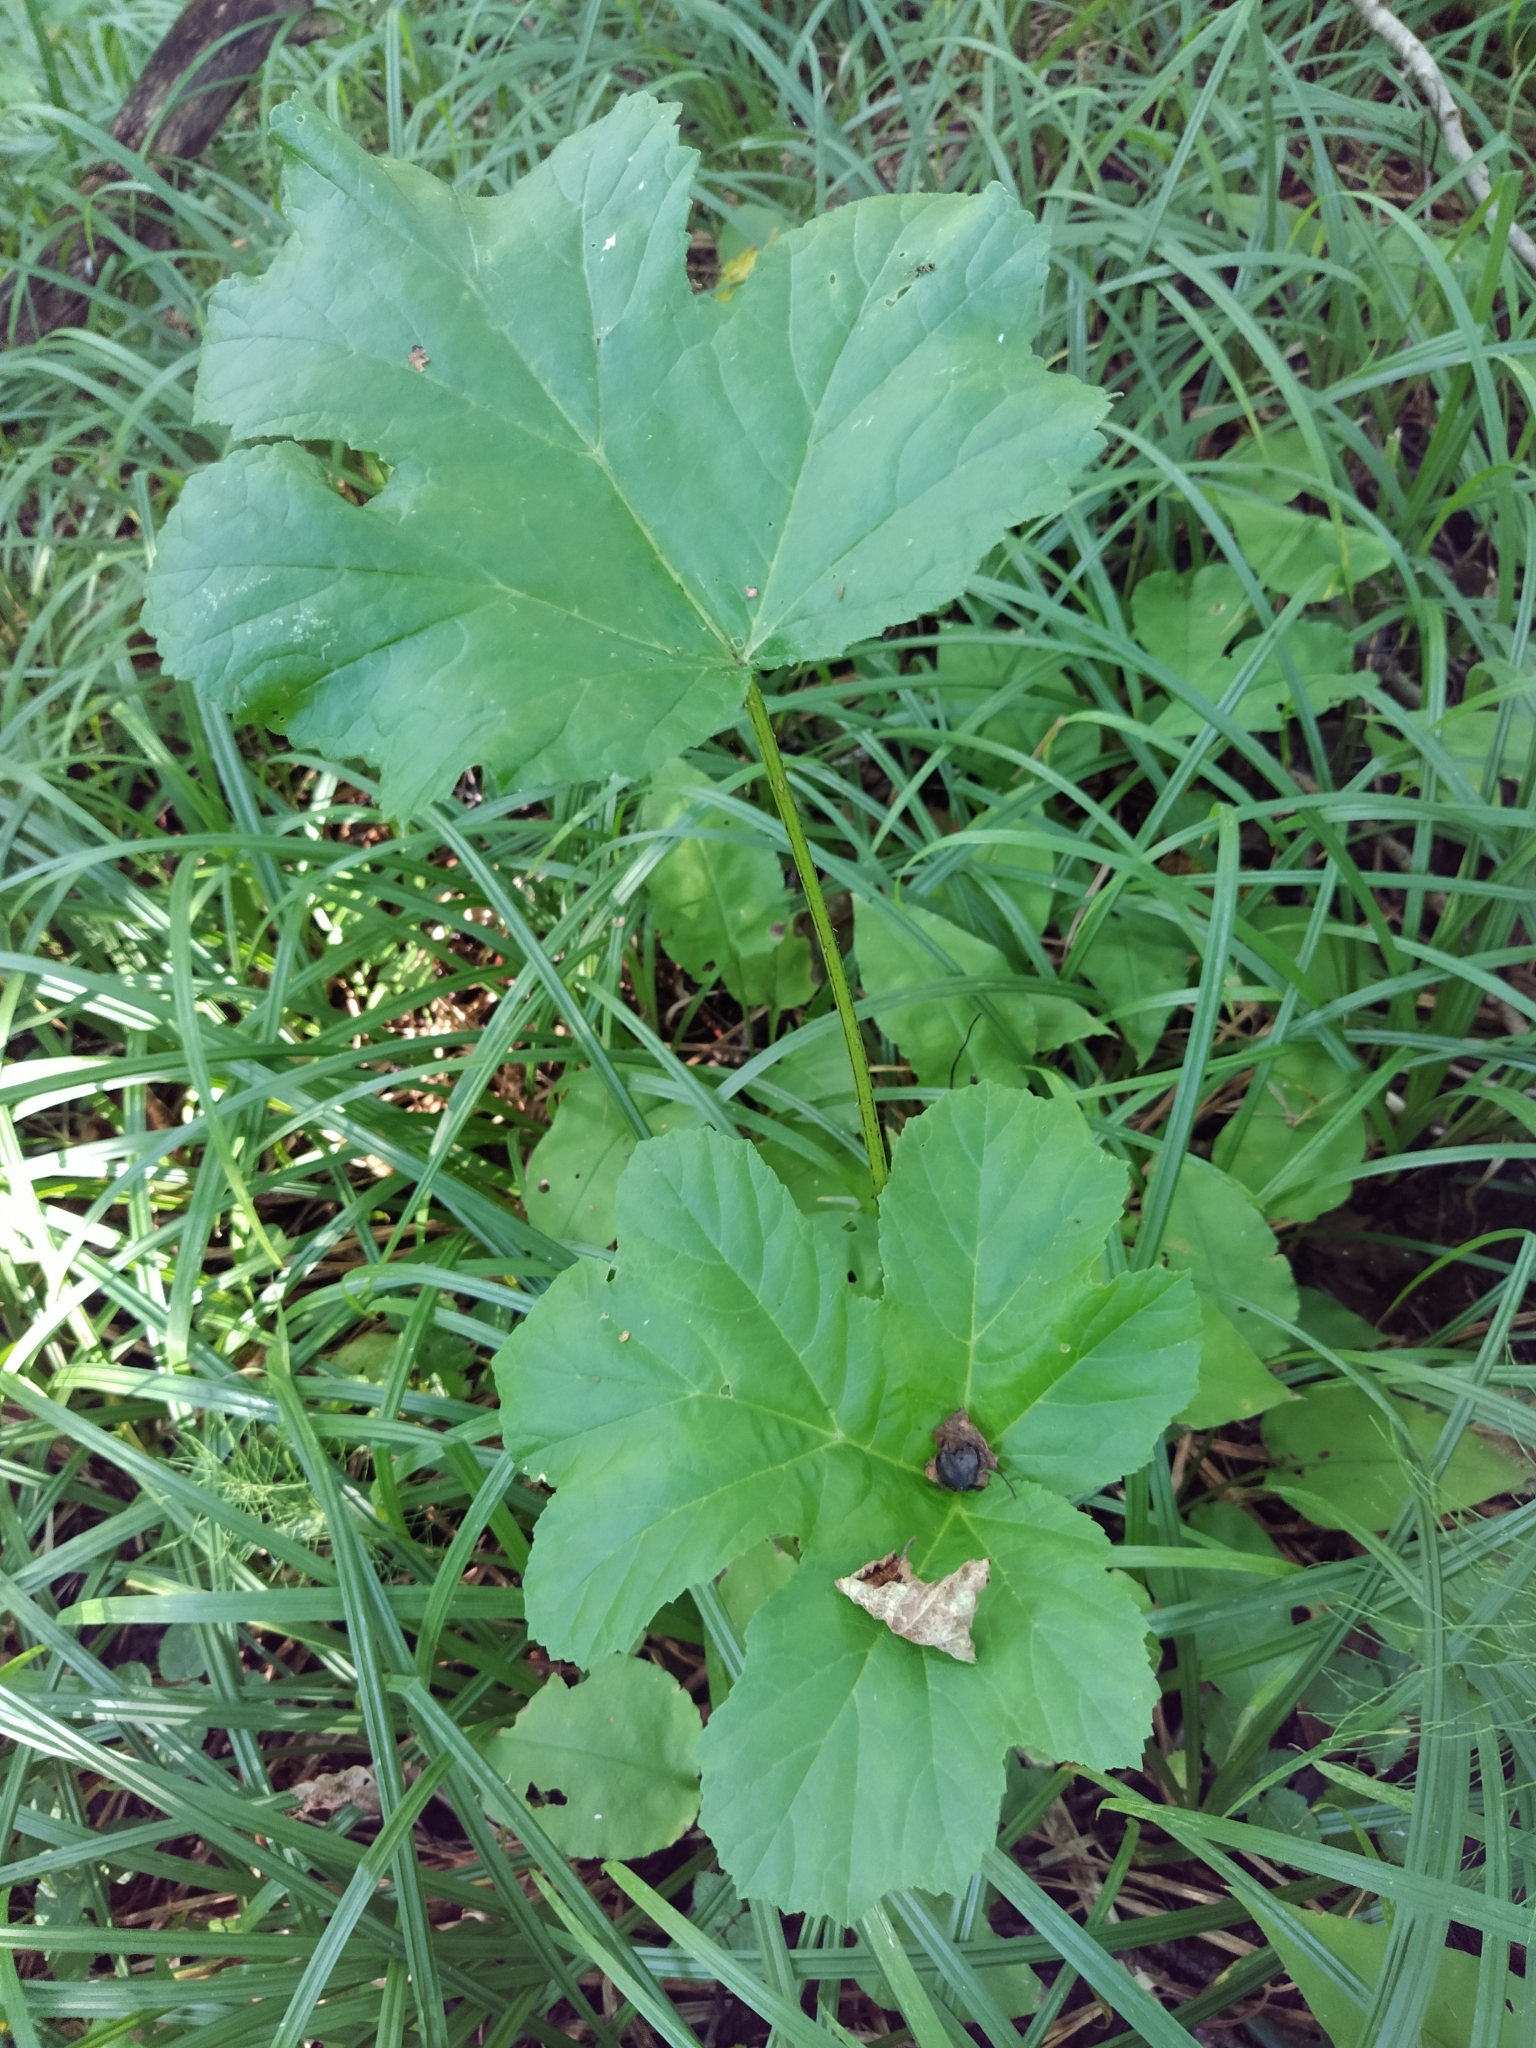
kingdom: Plantae
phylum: Tracheophyta
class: Magnoliopsida
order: Apiales
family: Apiaceae
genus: Heracleum
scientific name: Heracleum sphondylium
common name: Hogweed
